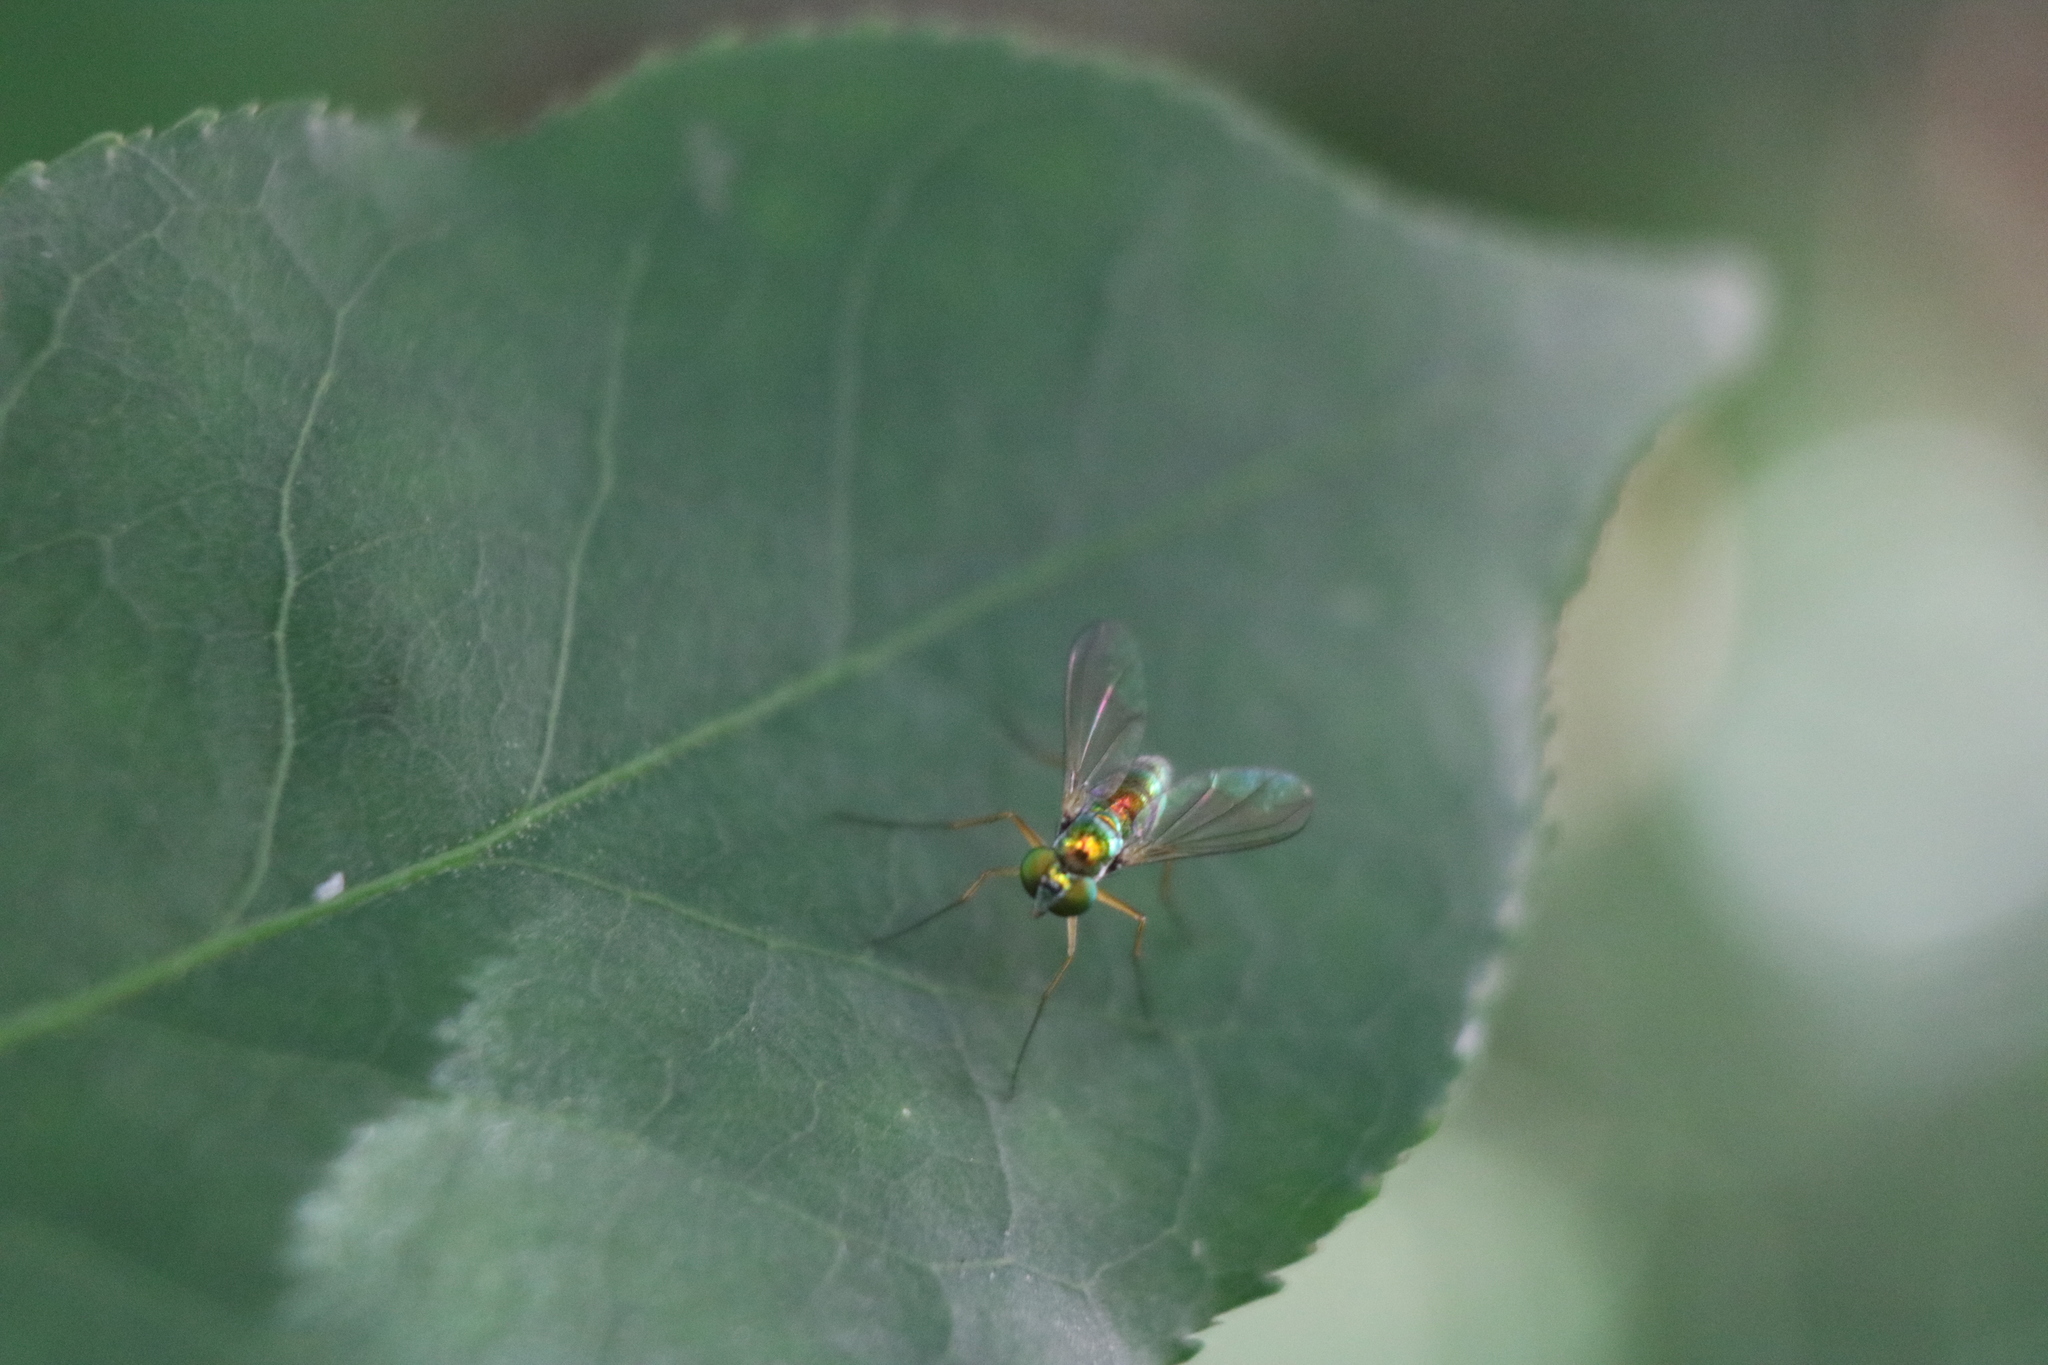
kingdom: Animalia
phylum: Arthropoda
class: Insecta
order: Diptera
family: Dolichopodidae
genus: Amblypsilopus
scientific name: Amblypsilopus scintillans
